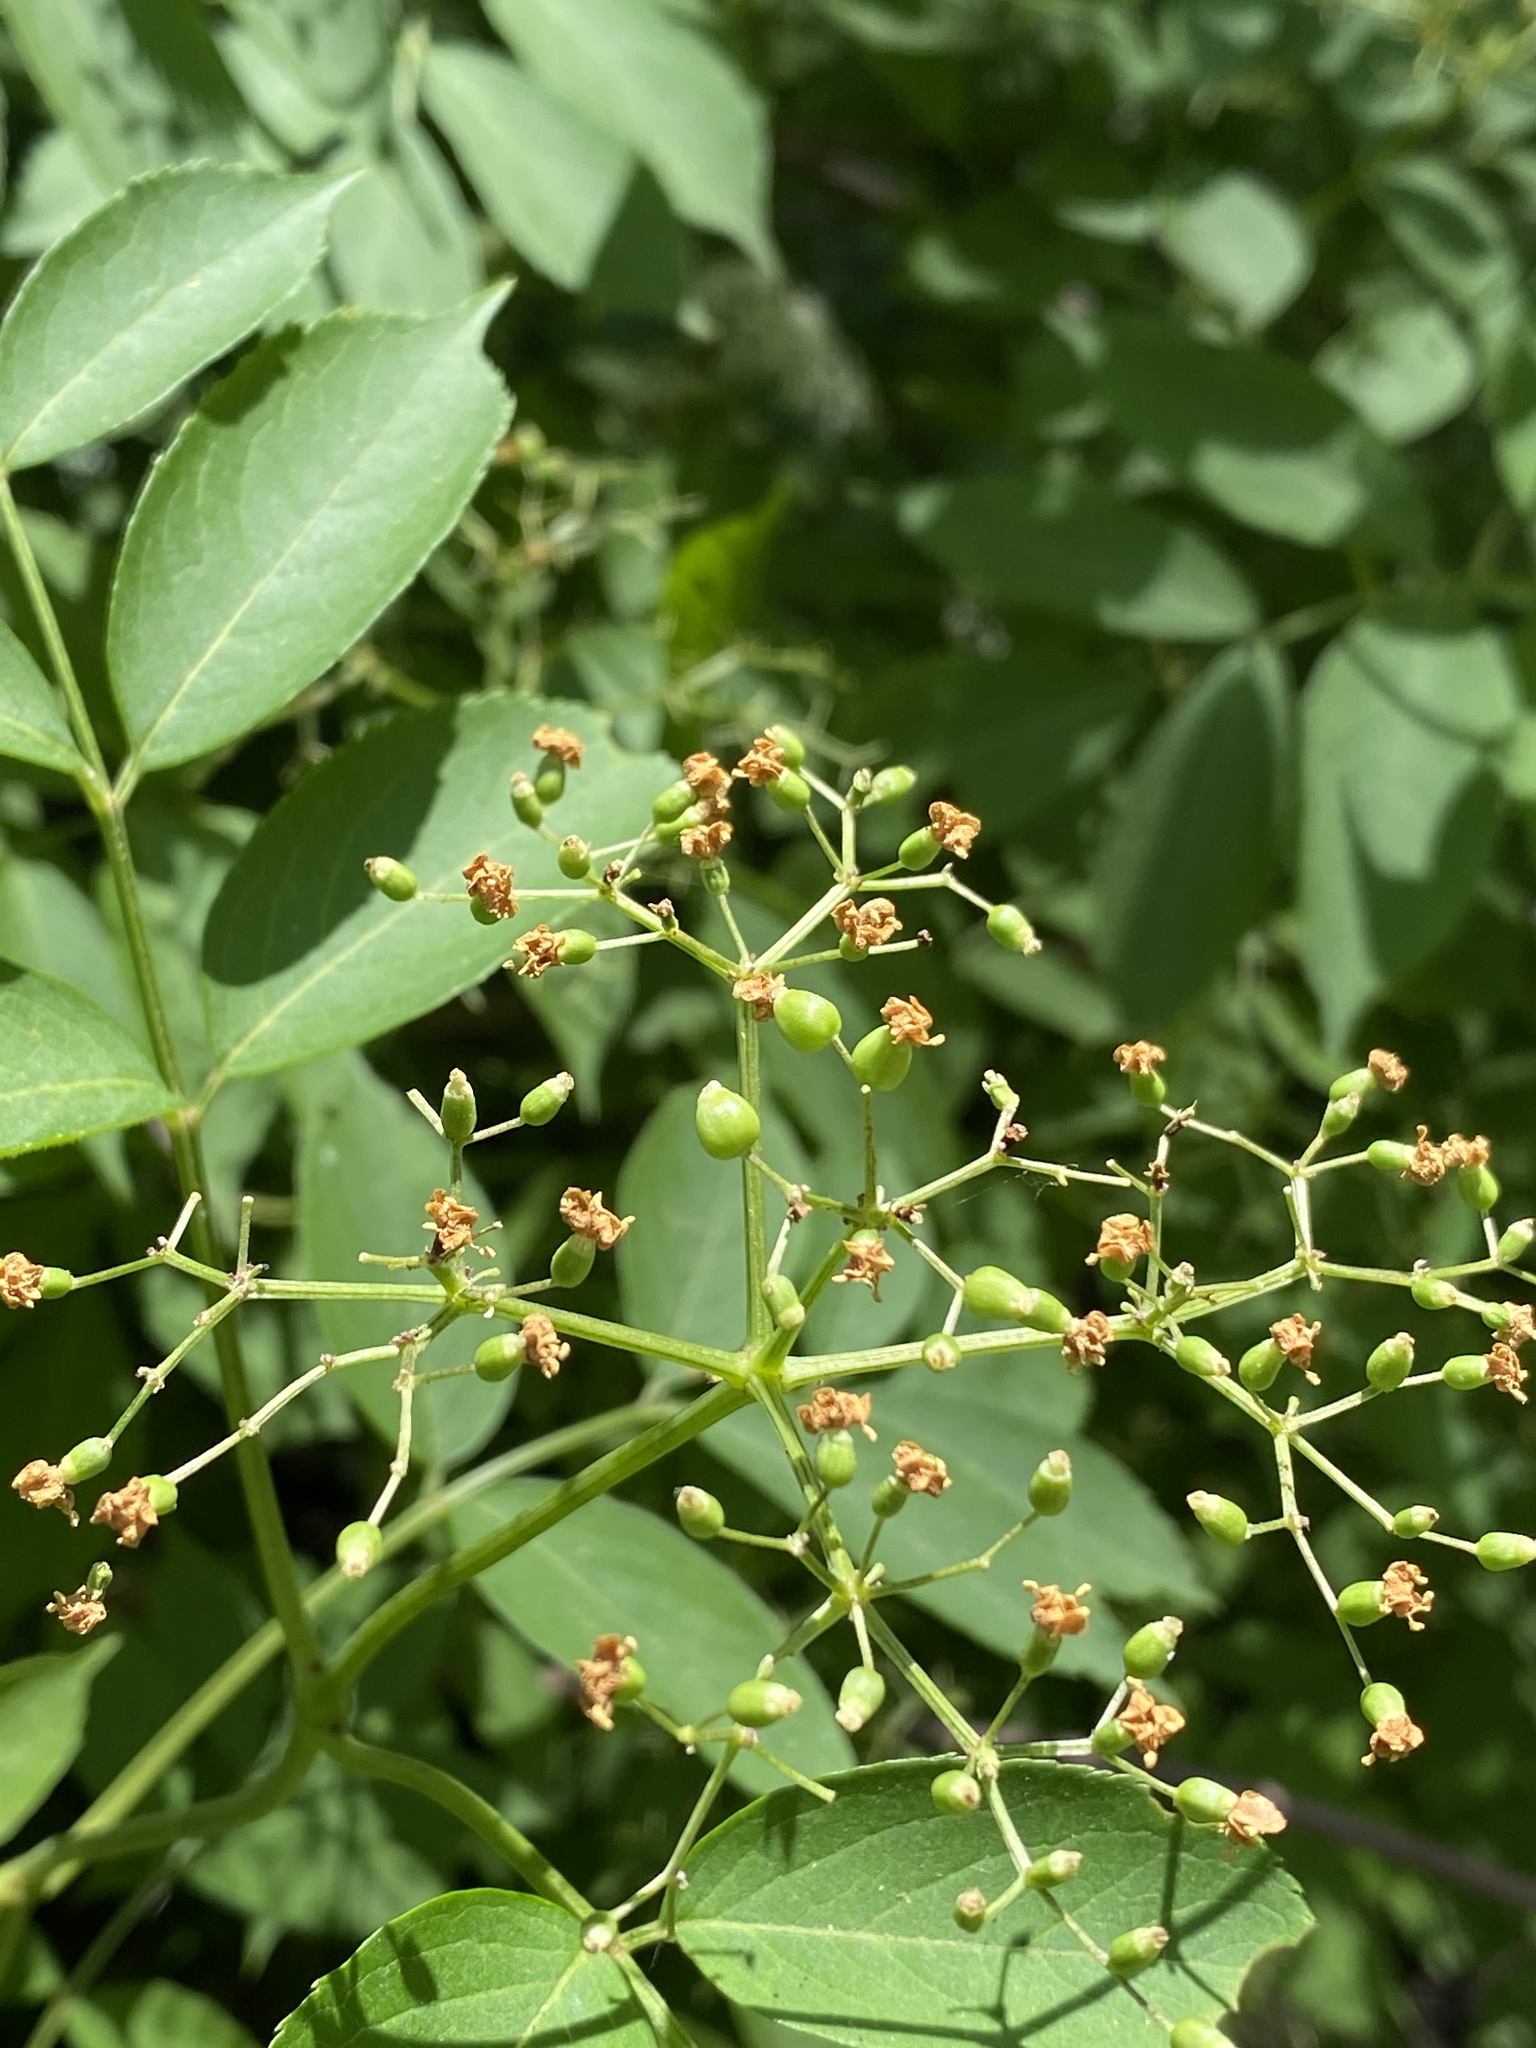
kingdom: Plantae
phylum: Tracheophyta
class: Magnoliopsida
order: Dipsacales
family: Viburnaceae
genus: Sambucus
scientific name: Sambucus canadensis
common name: American elder
